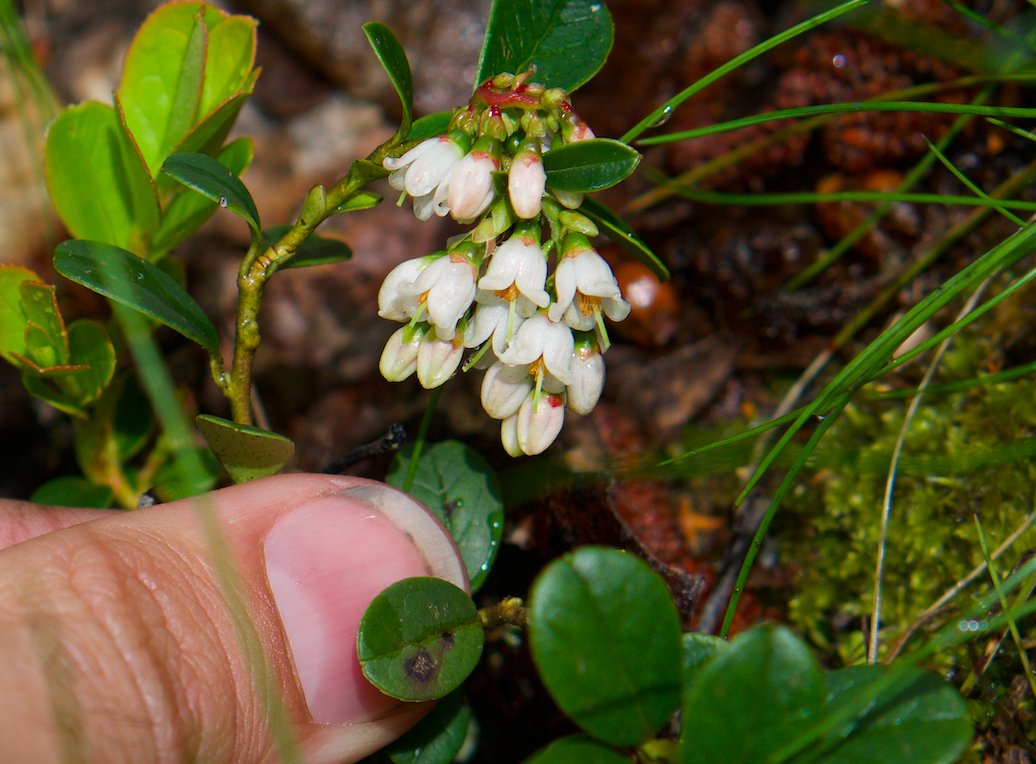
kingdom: Plantae
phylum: Tracheophyta
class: Magnoliopsida
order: Ericales
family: Ericaceae
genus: Vaccinium
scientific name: Vaccinium vitis-idaea
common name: Cowberry
